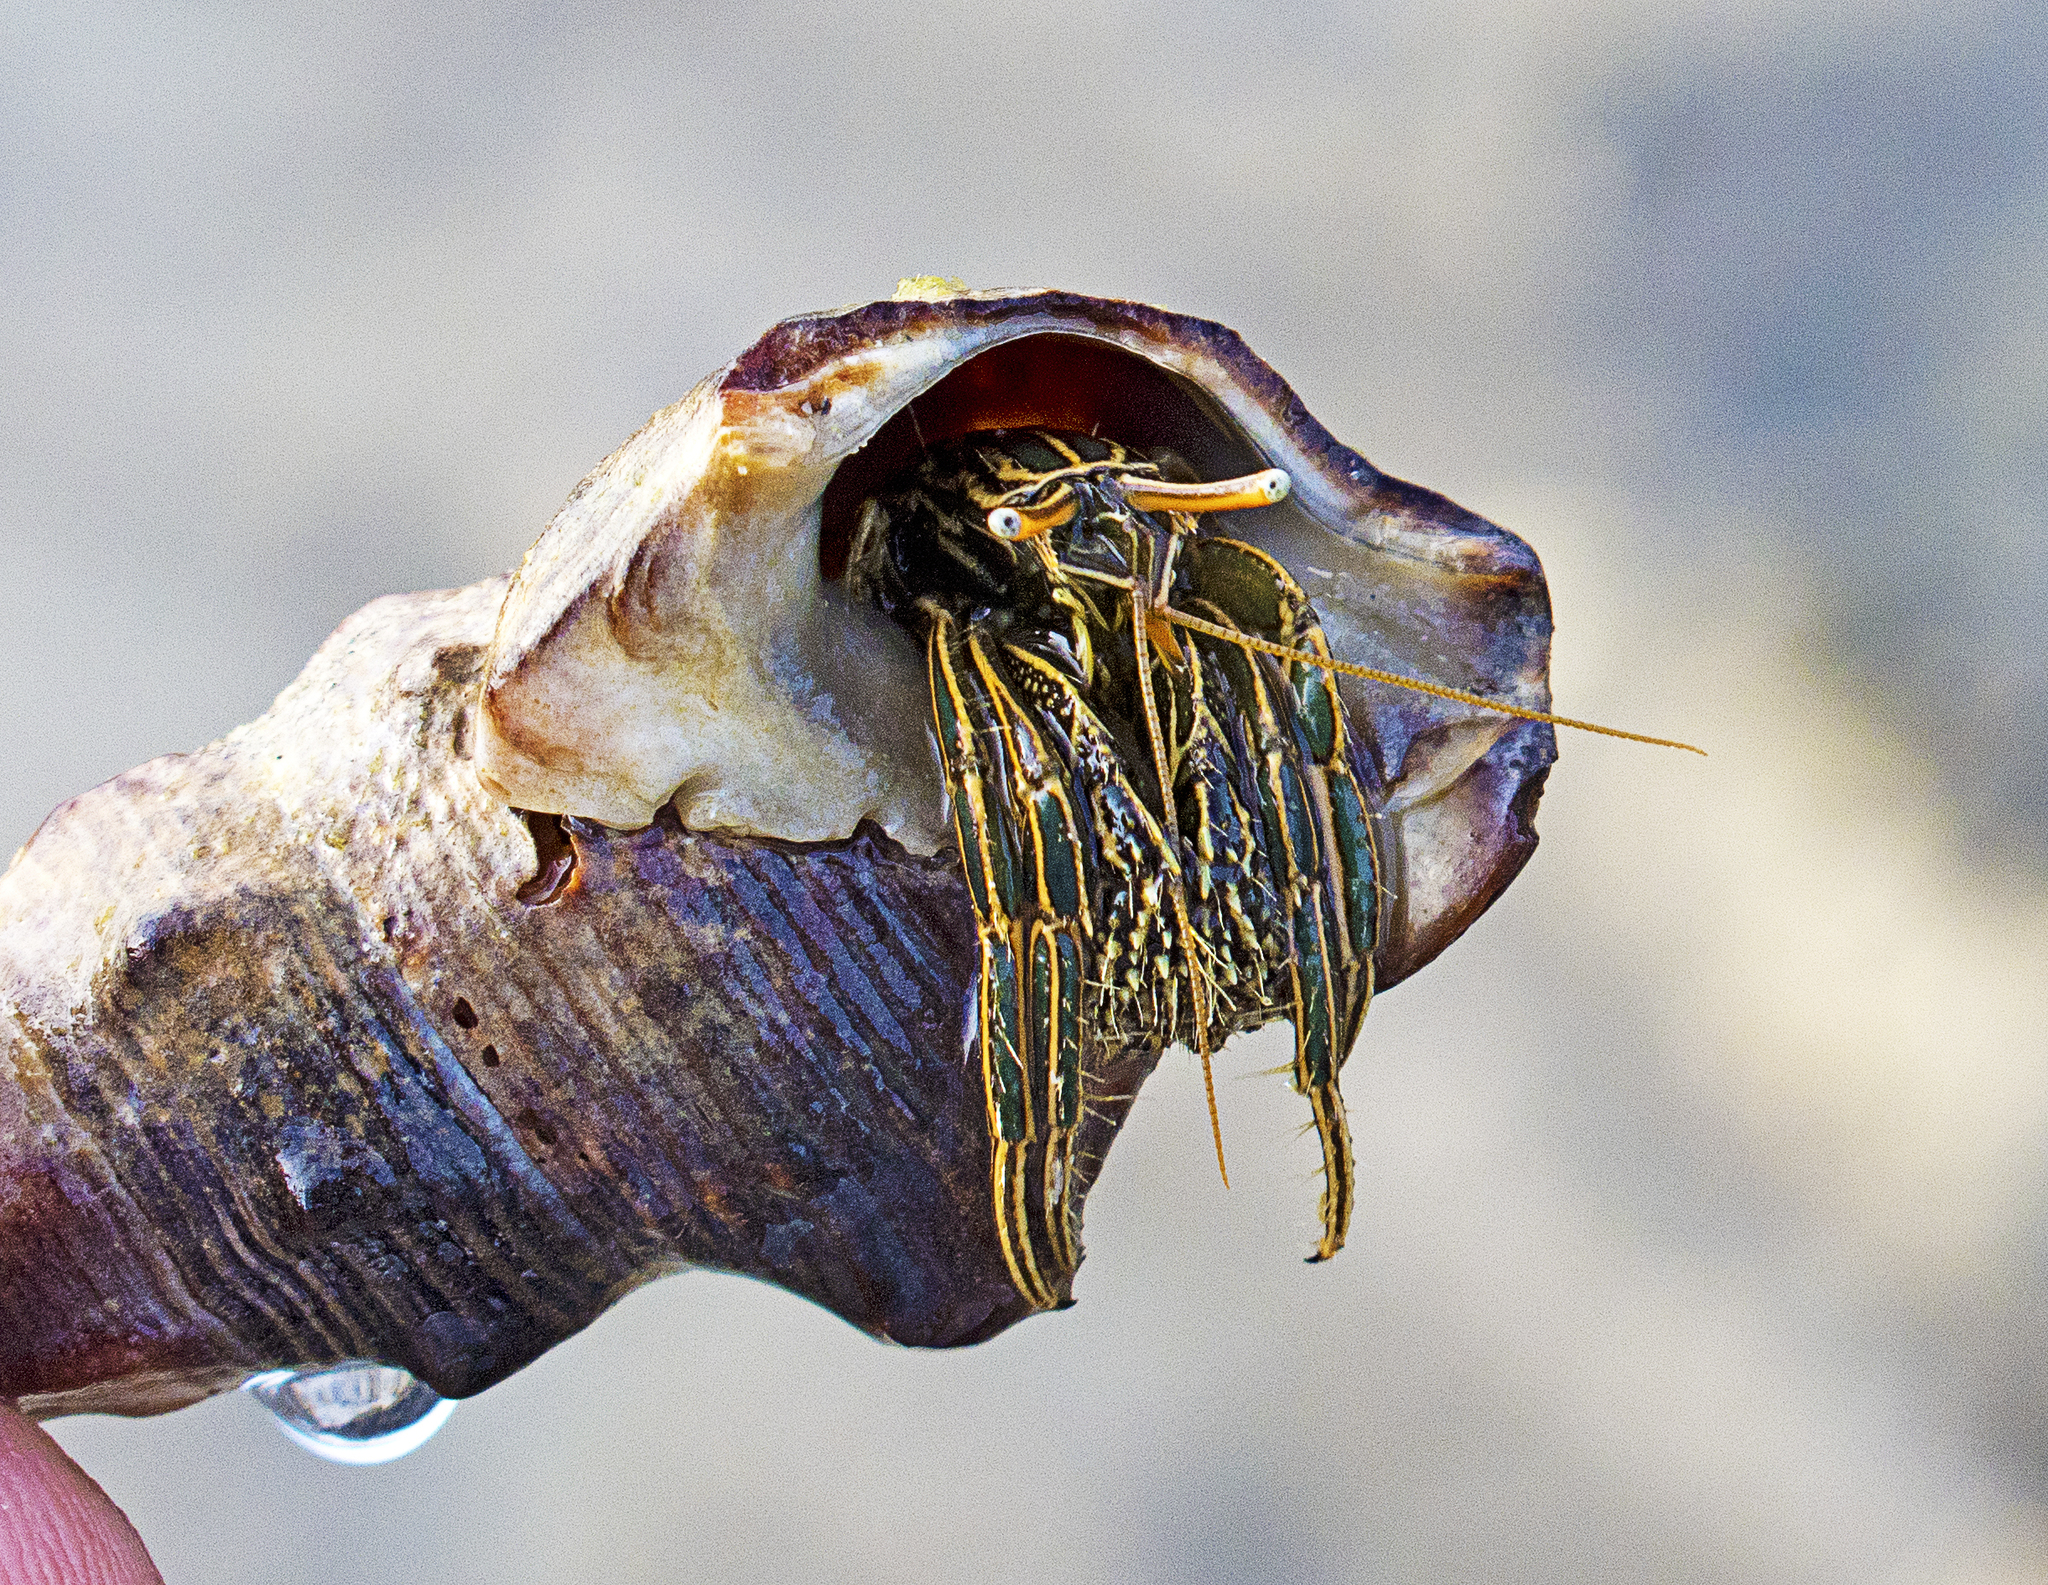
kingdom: Animalia
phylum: Arthropoda
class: Malacostraca
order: Decapoda
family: Diogenidae
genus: Clibanarius
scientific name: Clibanarius taeniatus
